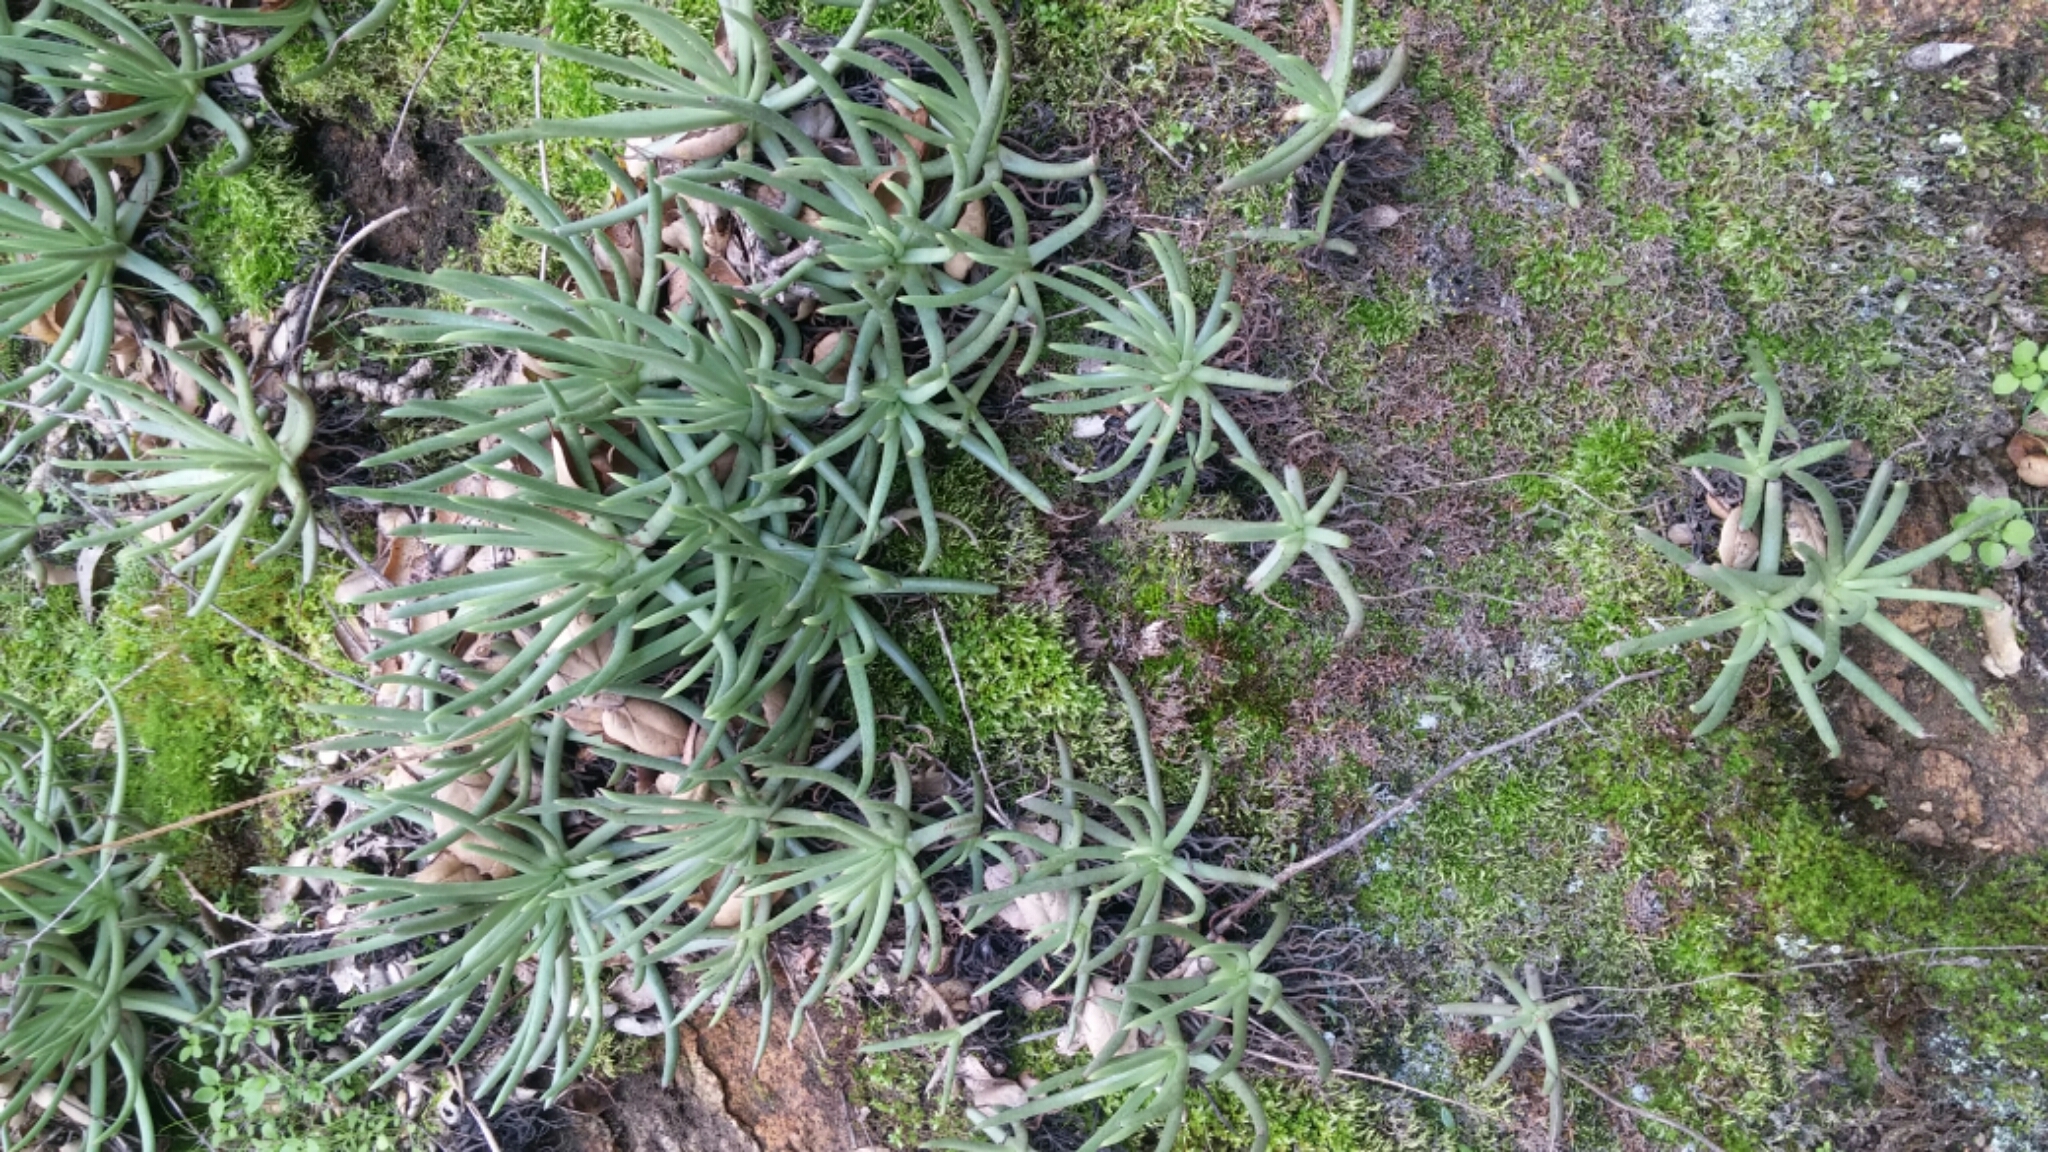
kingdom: Plantae
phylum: Tracheophyta
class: Magnoliopsida
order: Saxifragales
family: Crassulaceae
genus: Dudleya
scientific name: Dudleya edulis
